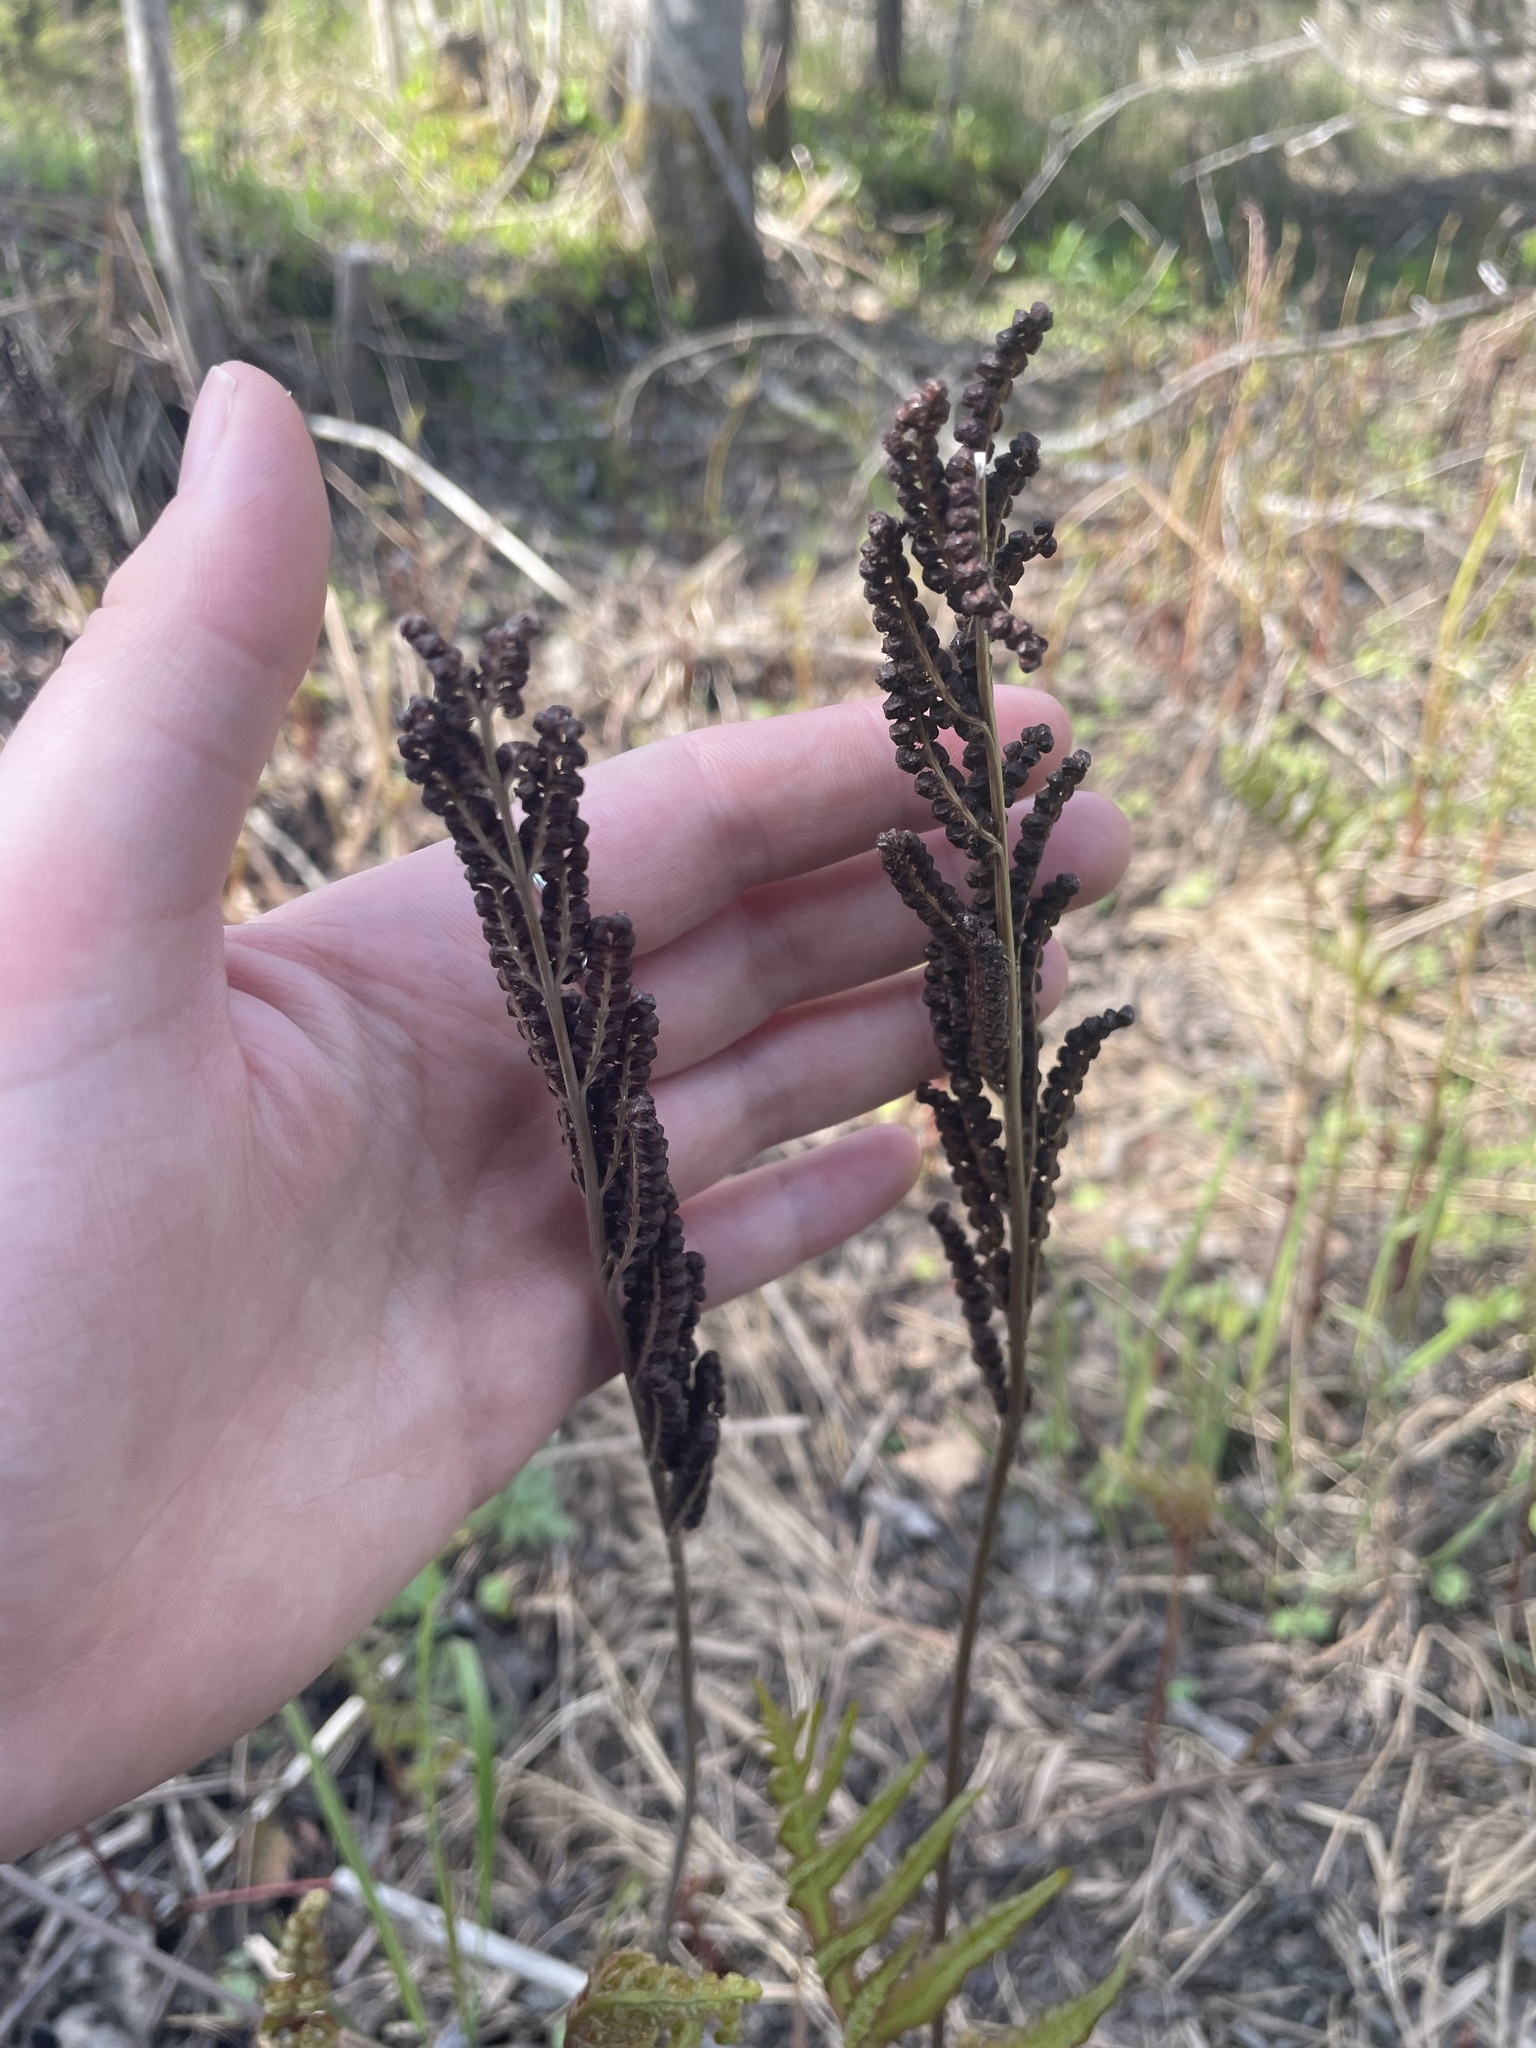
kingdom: Plantae
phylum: Tracheophyta
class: Polypodiopsida
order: Polypodiales
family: Onocleaceae
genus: Onoclea
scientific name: Onoclea sensibilis
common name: Sensitive fern
